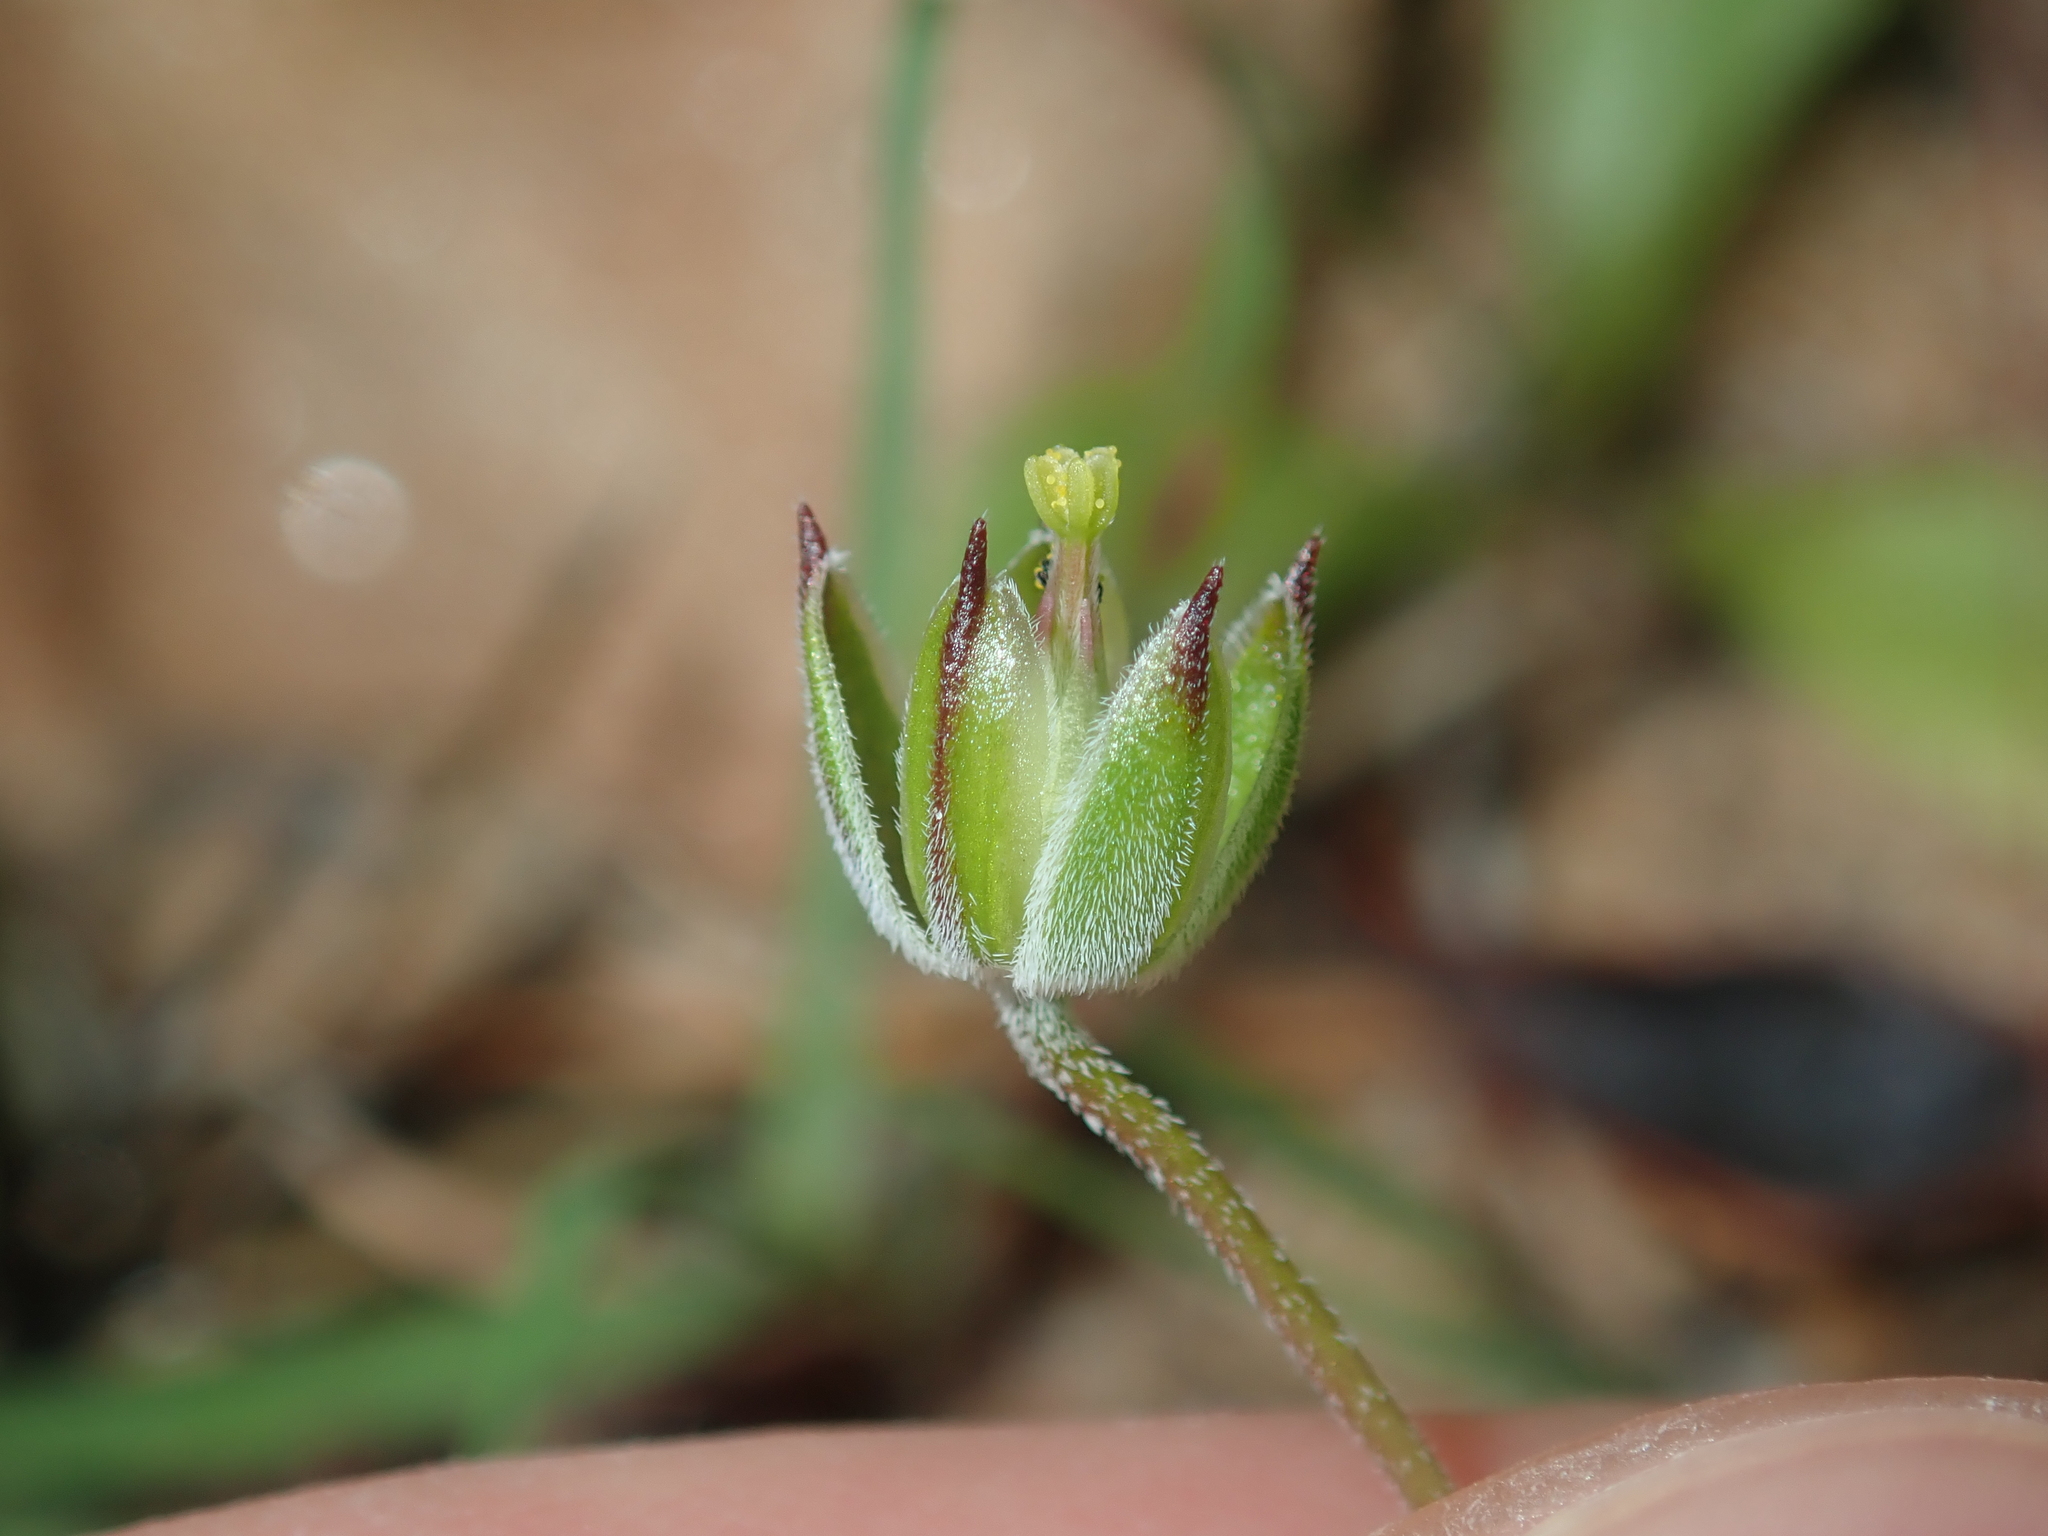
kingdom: Plantae
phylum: Tracheophyta
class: Magnoliopsida
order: Geraniales
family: Geraniaceae
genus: Erodium
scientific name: Erodium cygnorum
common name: Western stork's-bill
